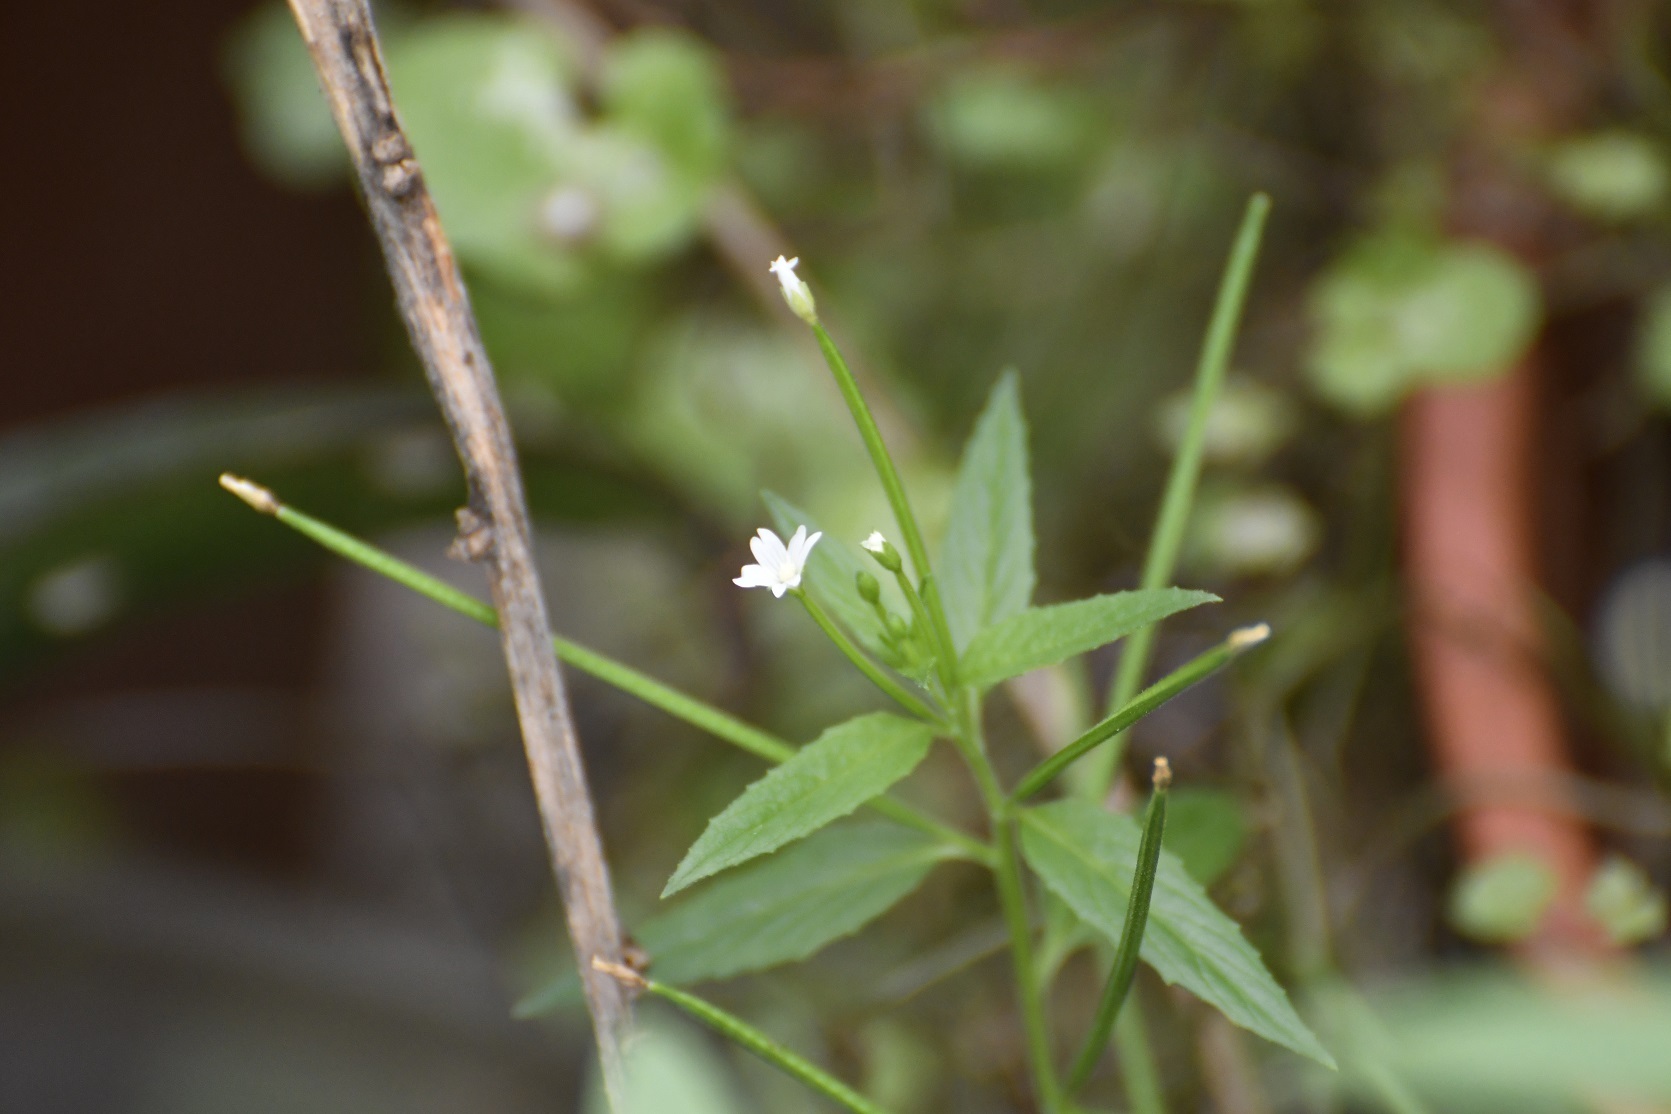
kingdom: Plantae
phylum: Tracheophyta
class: Magnoliopsida
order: Myrtales
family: Onagraceae
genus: Epilobium
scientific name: Epilobium ciliatum
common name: American willowherb
